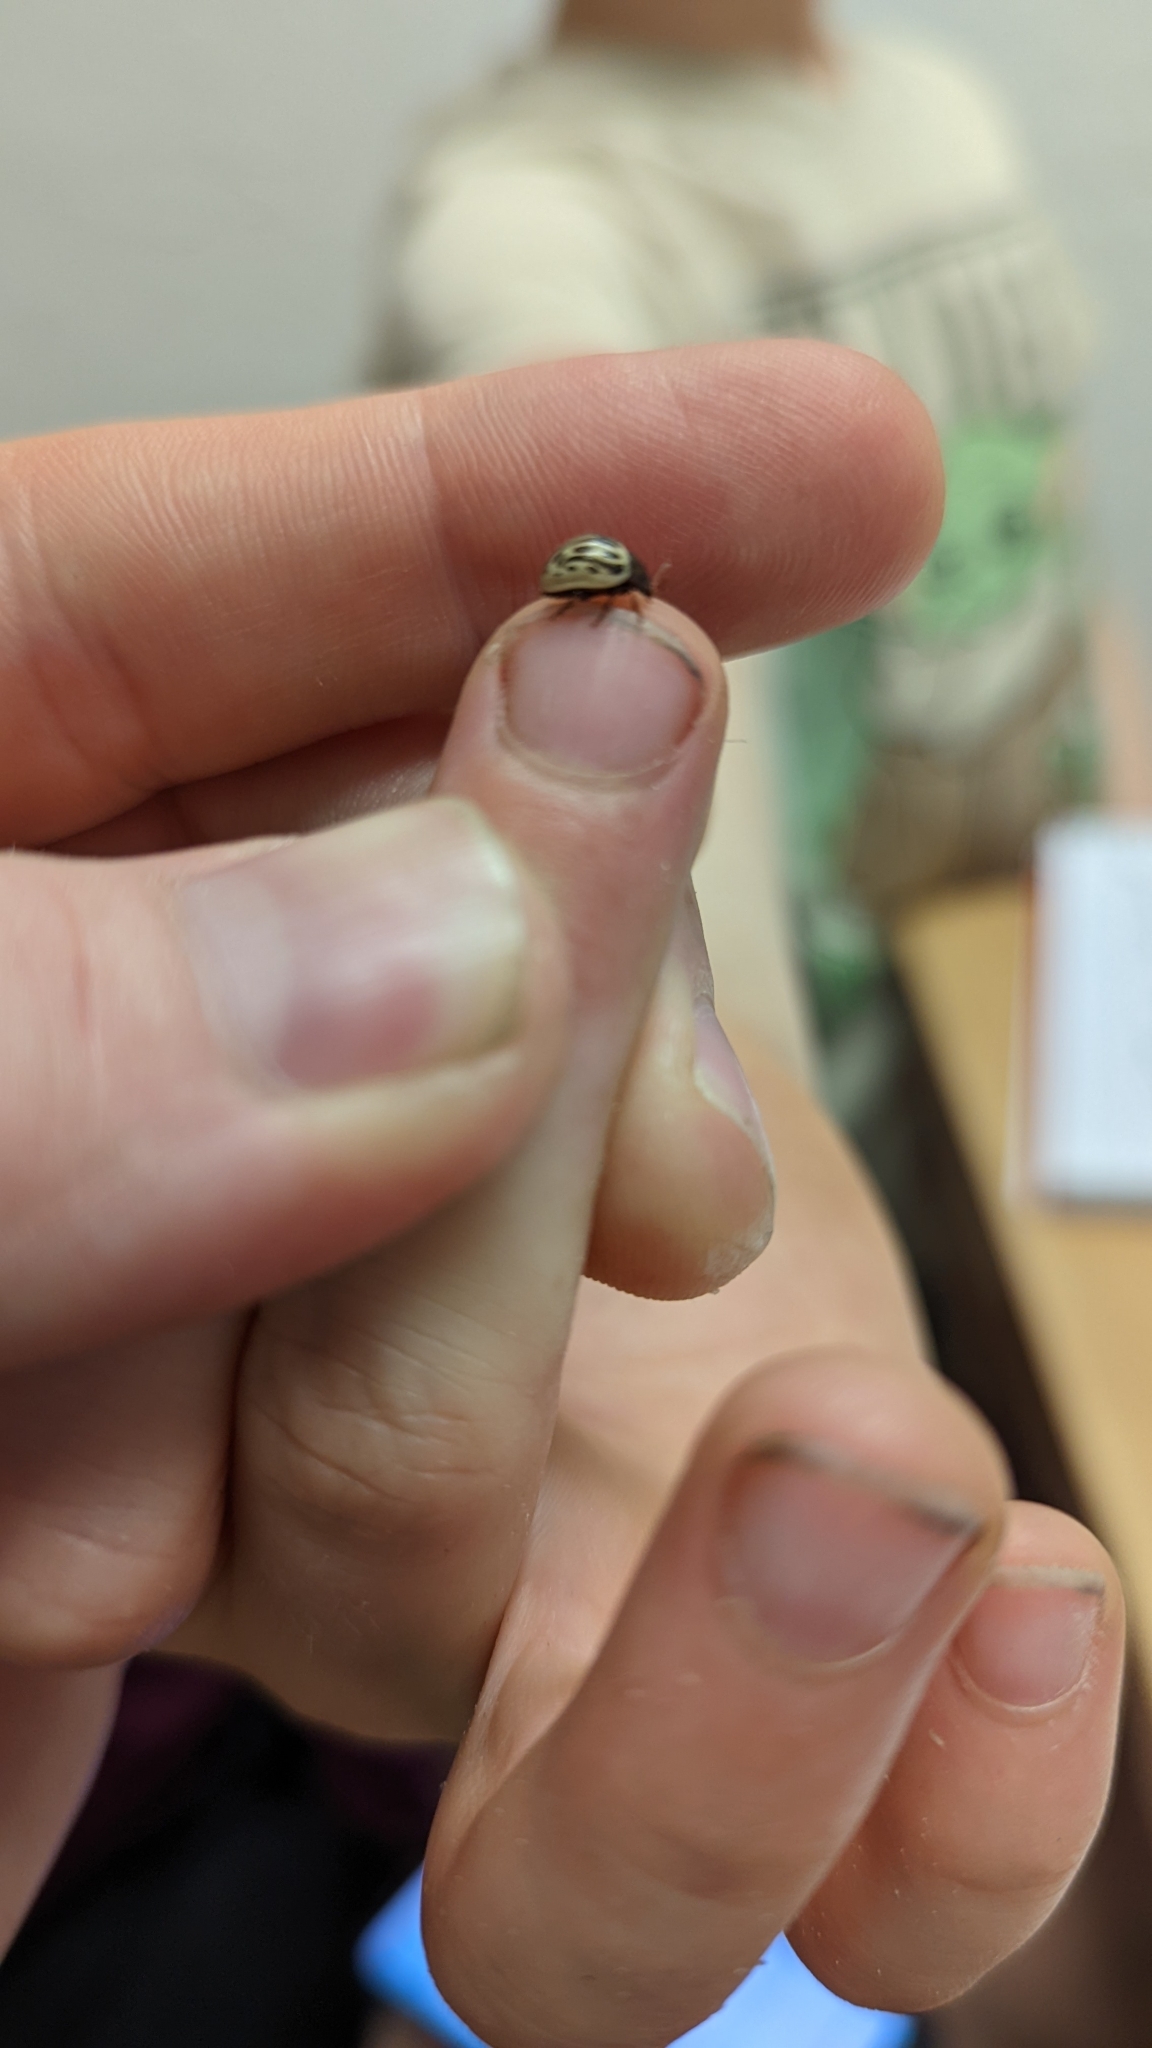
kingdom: Animalia
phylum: Arthropoda
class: Insecta
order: Coleoptera
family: Chrysomelidae
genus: Calligrapha
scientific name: Calligrapha
